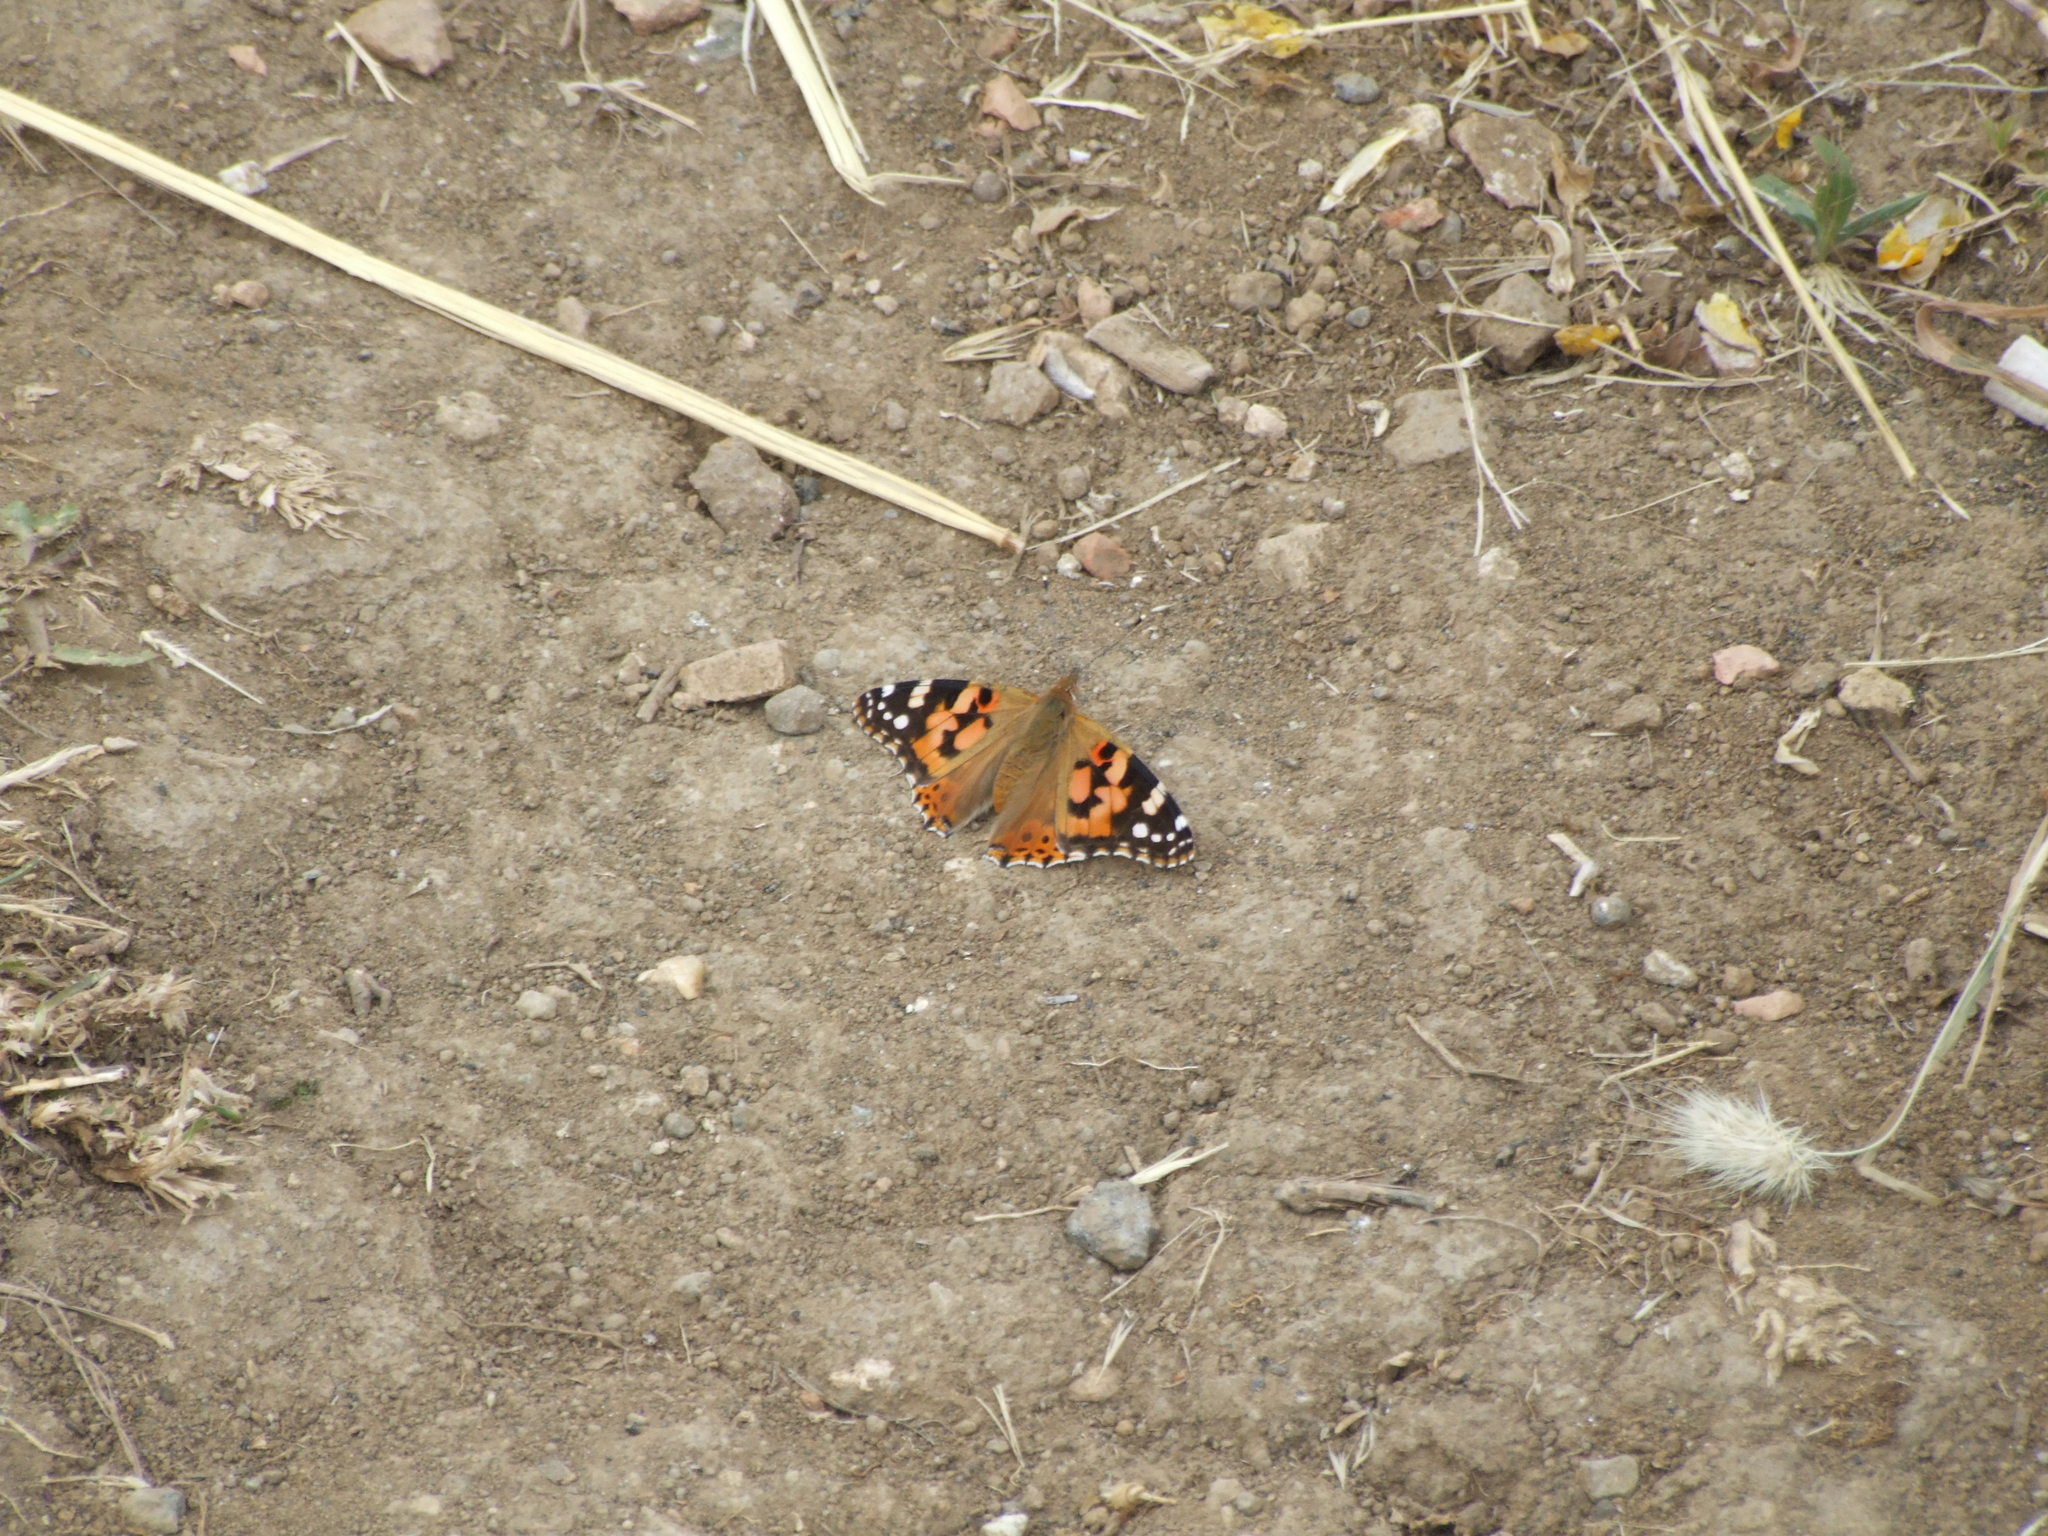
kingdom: Animalia
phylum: Arthropoda
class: Insecta
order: Lepidoptera
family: Nymphalidae
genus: Vanessa
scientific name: Vanessa cardui
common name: Painted lady
